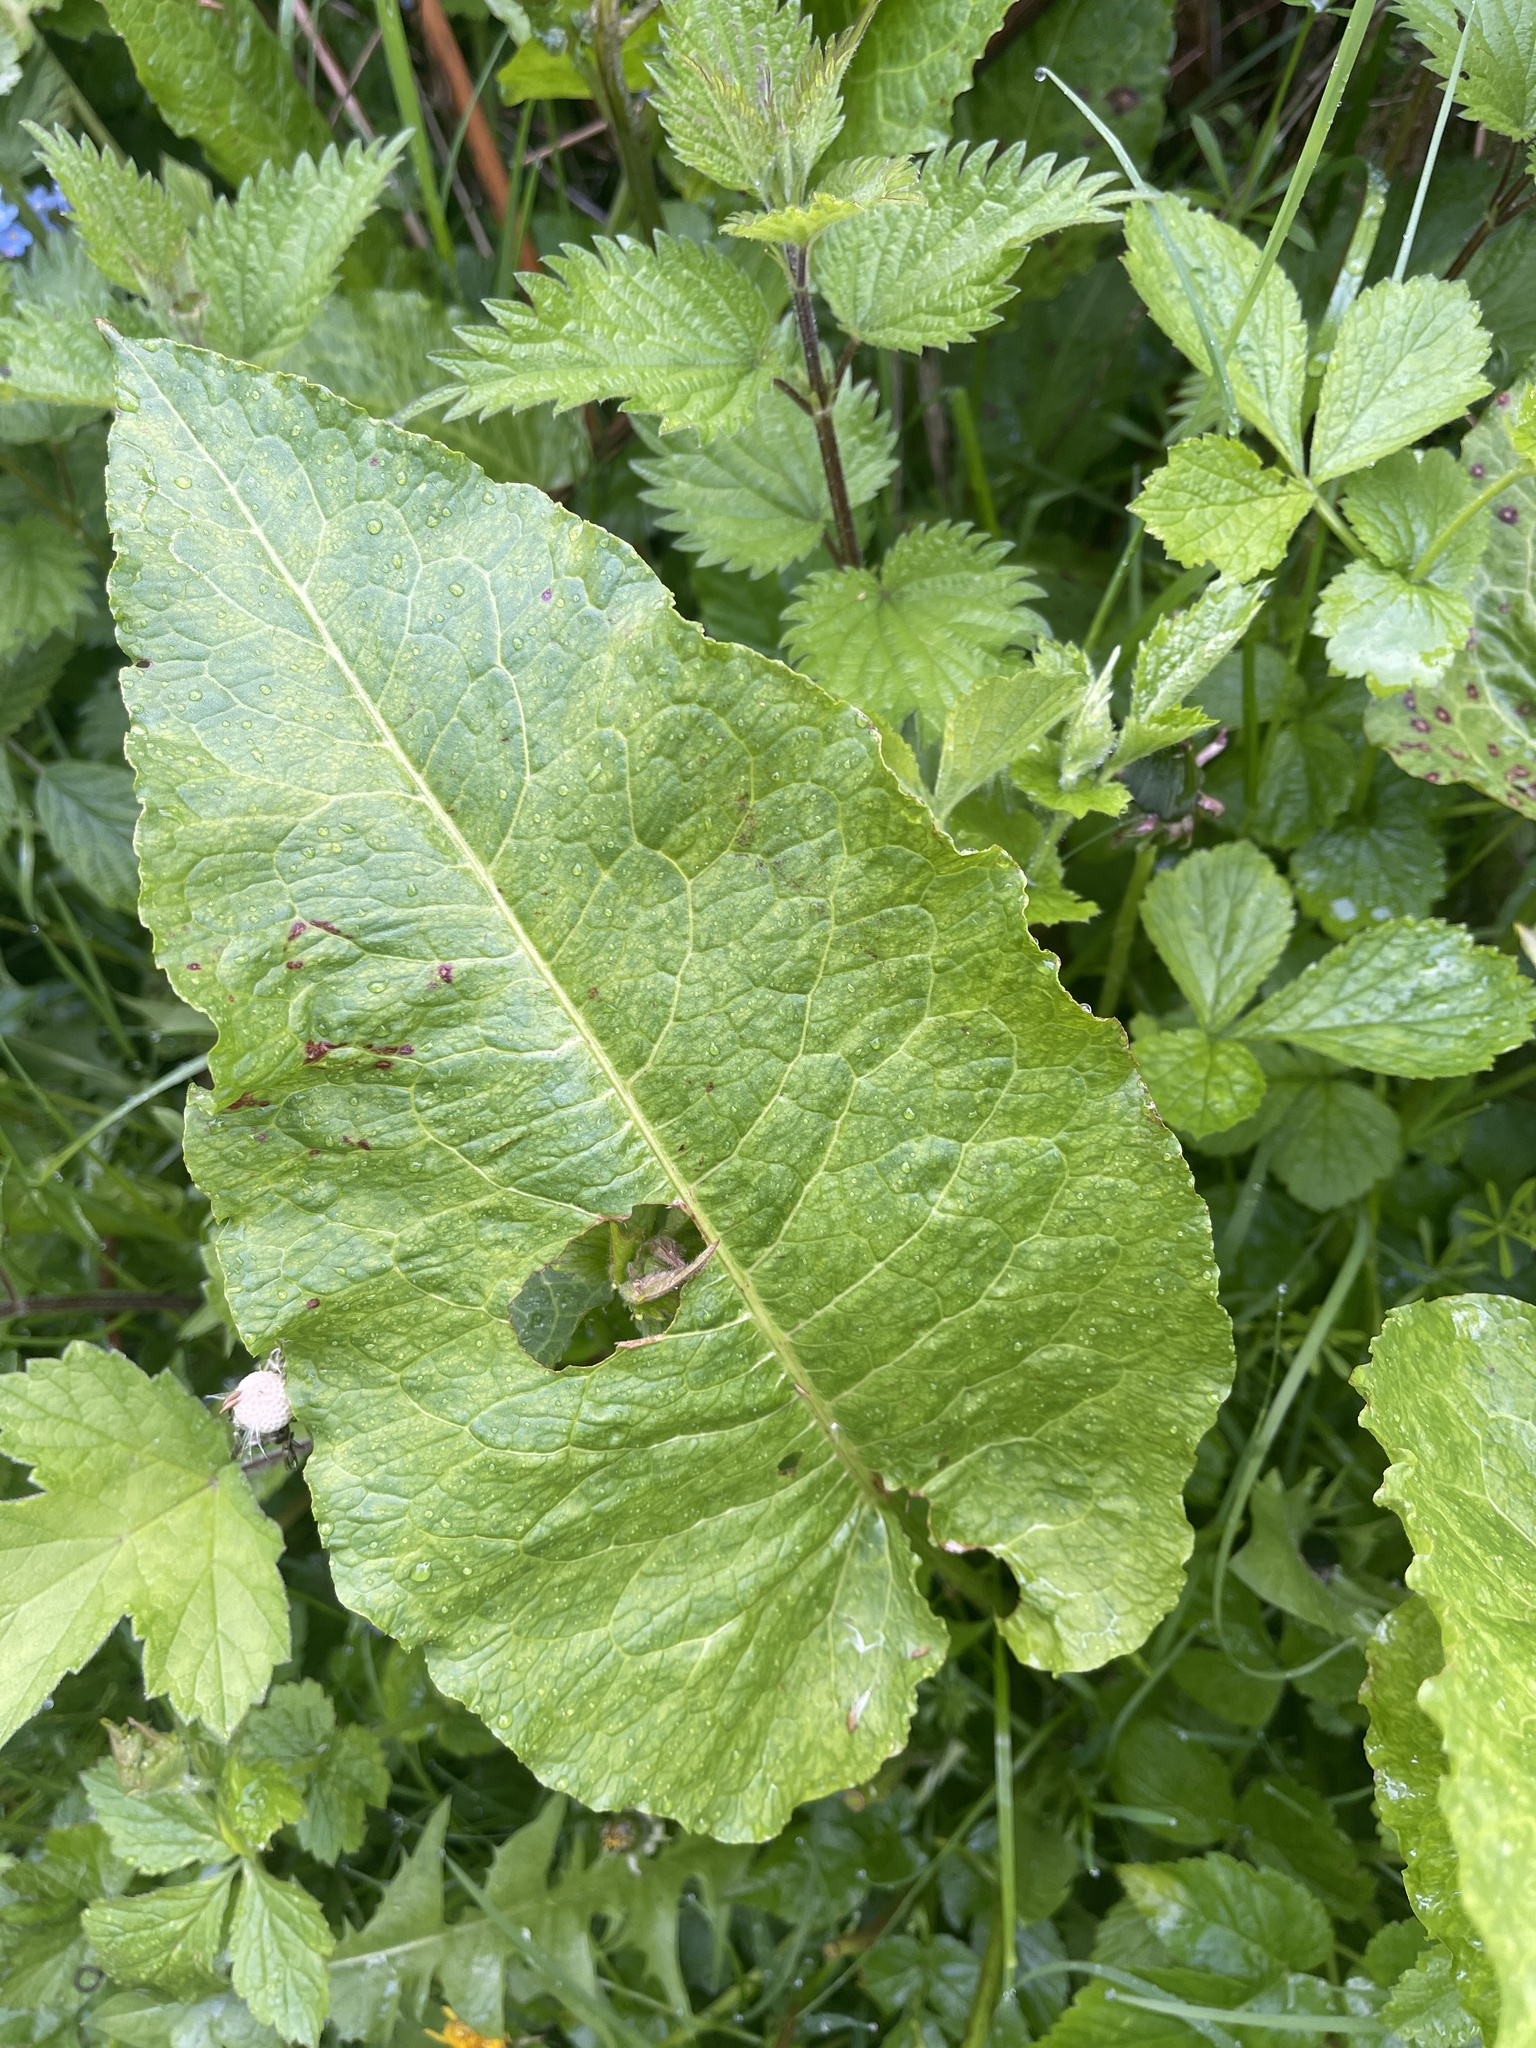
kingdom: Plantae
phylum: Tracheophyta
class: Magnoliopsida
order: Caryophyllales
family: Polygonaceae
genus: Rumex
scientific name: Rumex obtusifolius
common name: Bitter dock
